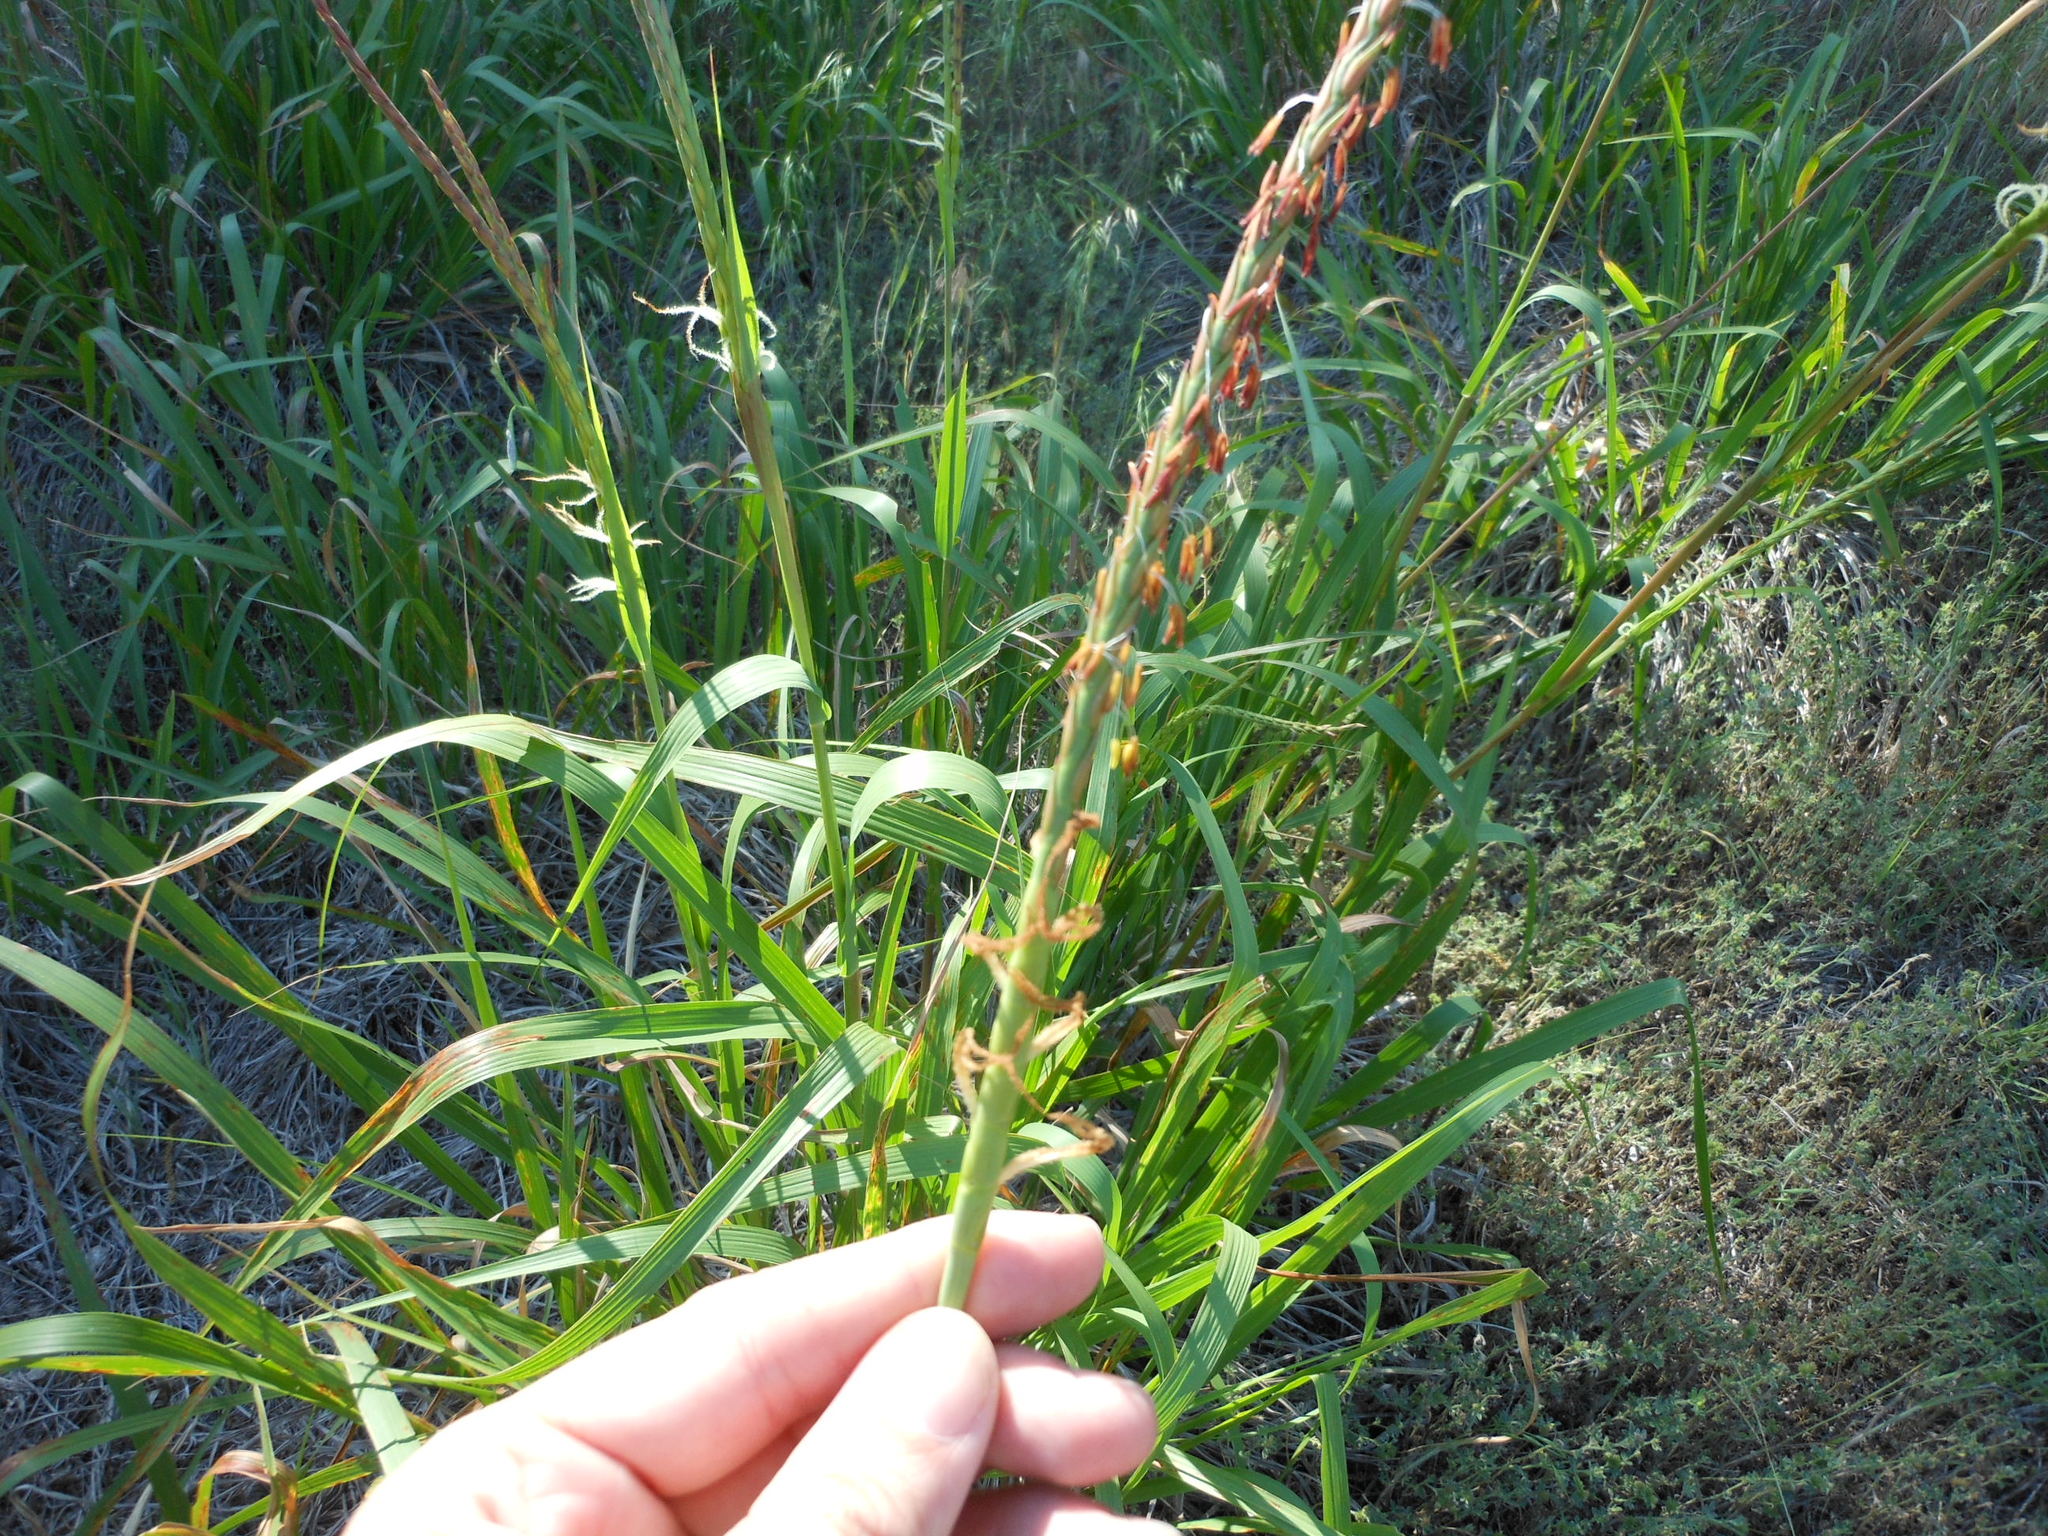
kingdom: Plantae
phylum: Tracheophyta
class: Liliopsida
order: Poales
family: Poaceae
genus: Tripsacum
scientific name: Tripsacum dactyloides
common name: Buffalo-grass
